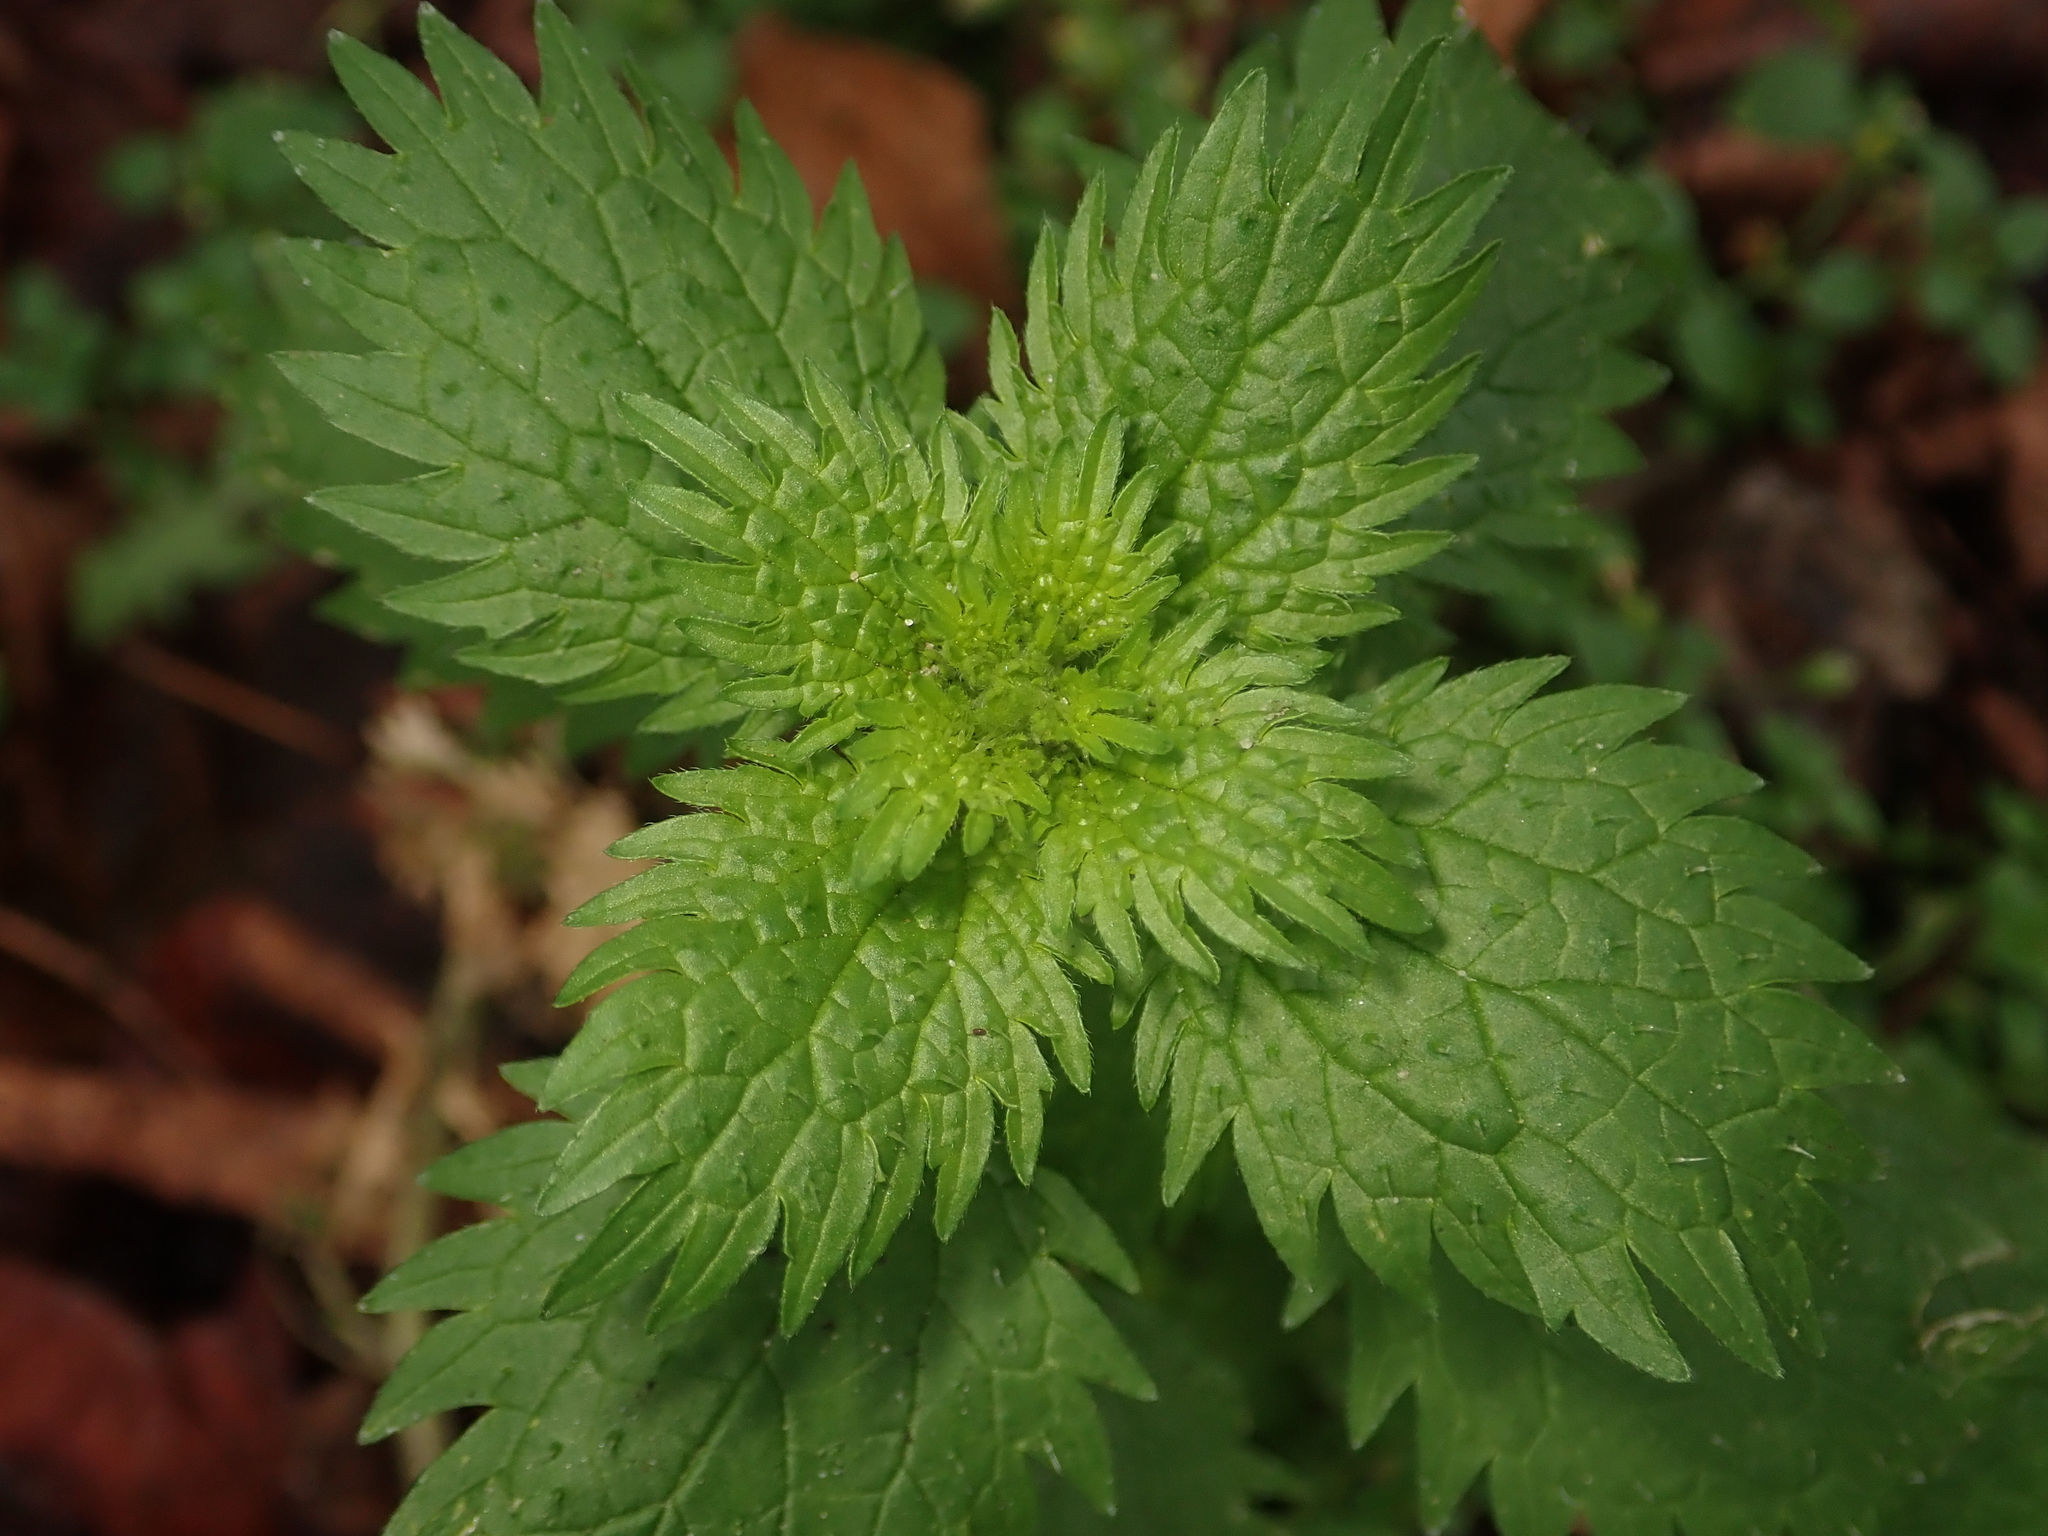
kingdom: Plantae
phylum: Tracheophyta
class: Magnoliopsida
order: Rosales
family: Urticaceae
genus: Urtica
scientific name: Urtica urens
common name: Dwarf nettle
